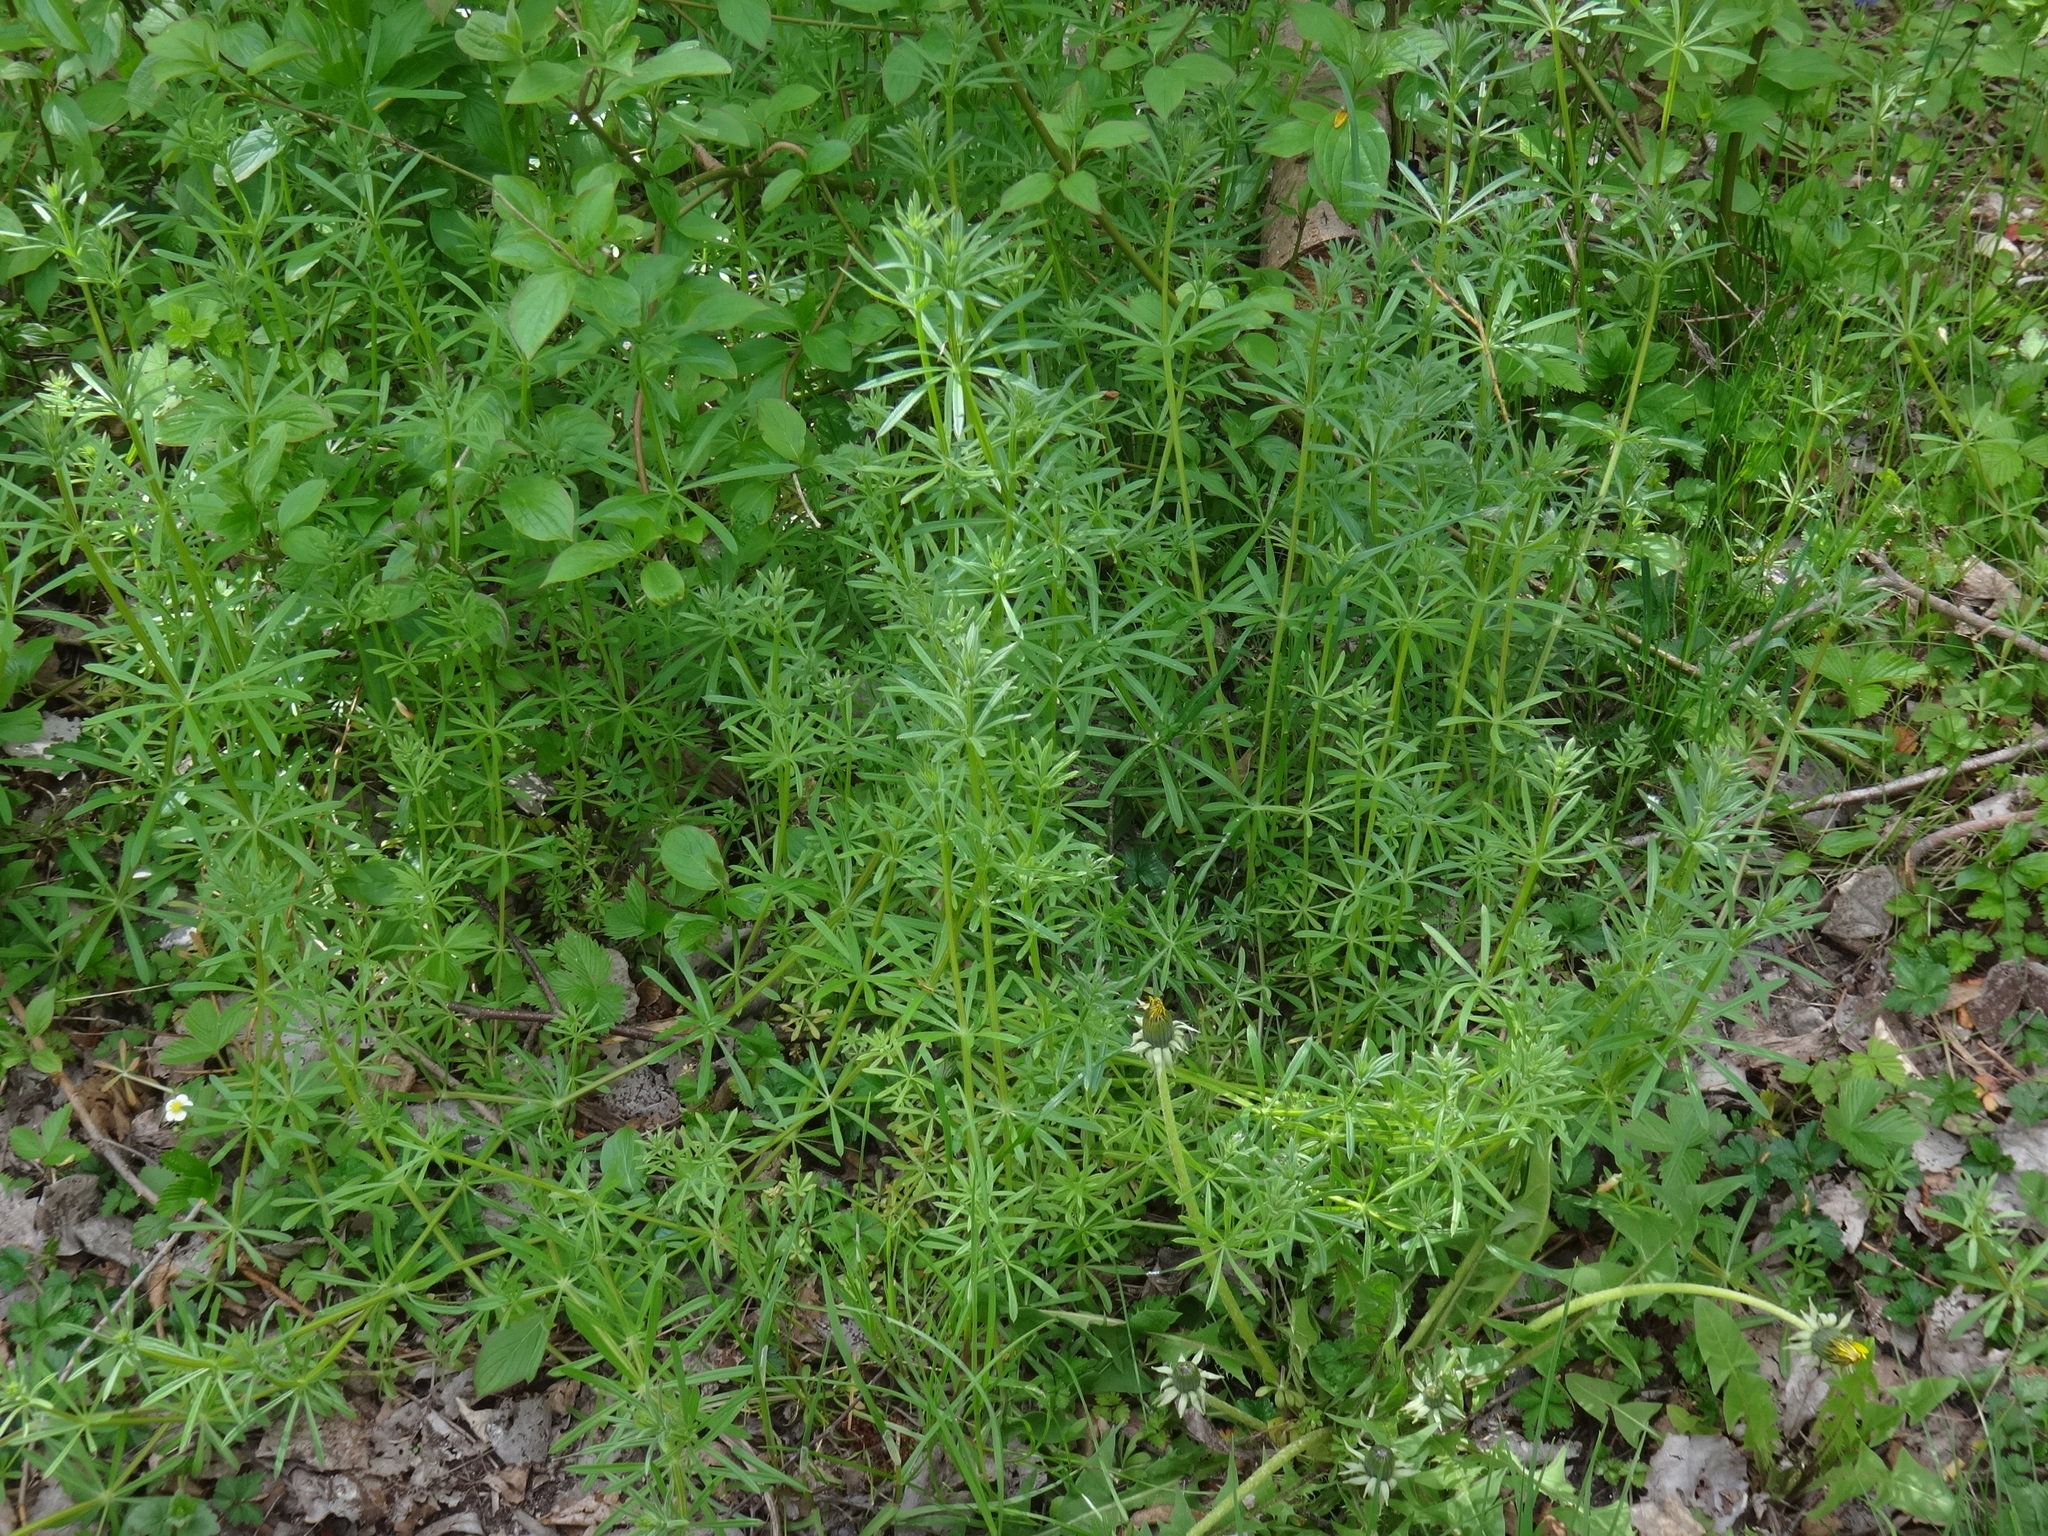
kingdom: Plantae
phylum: Tracheophyta
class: Magnoliopsida
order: Gentianales
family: Rubiaceae
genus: Galium
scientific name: Galium aparine
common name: Cleavers
